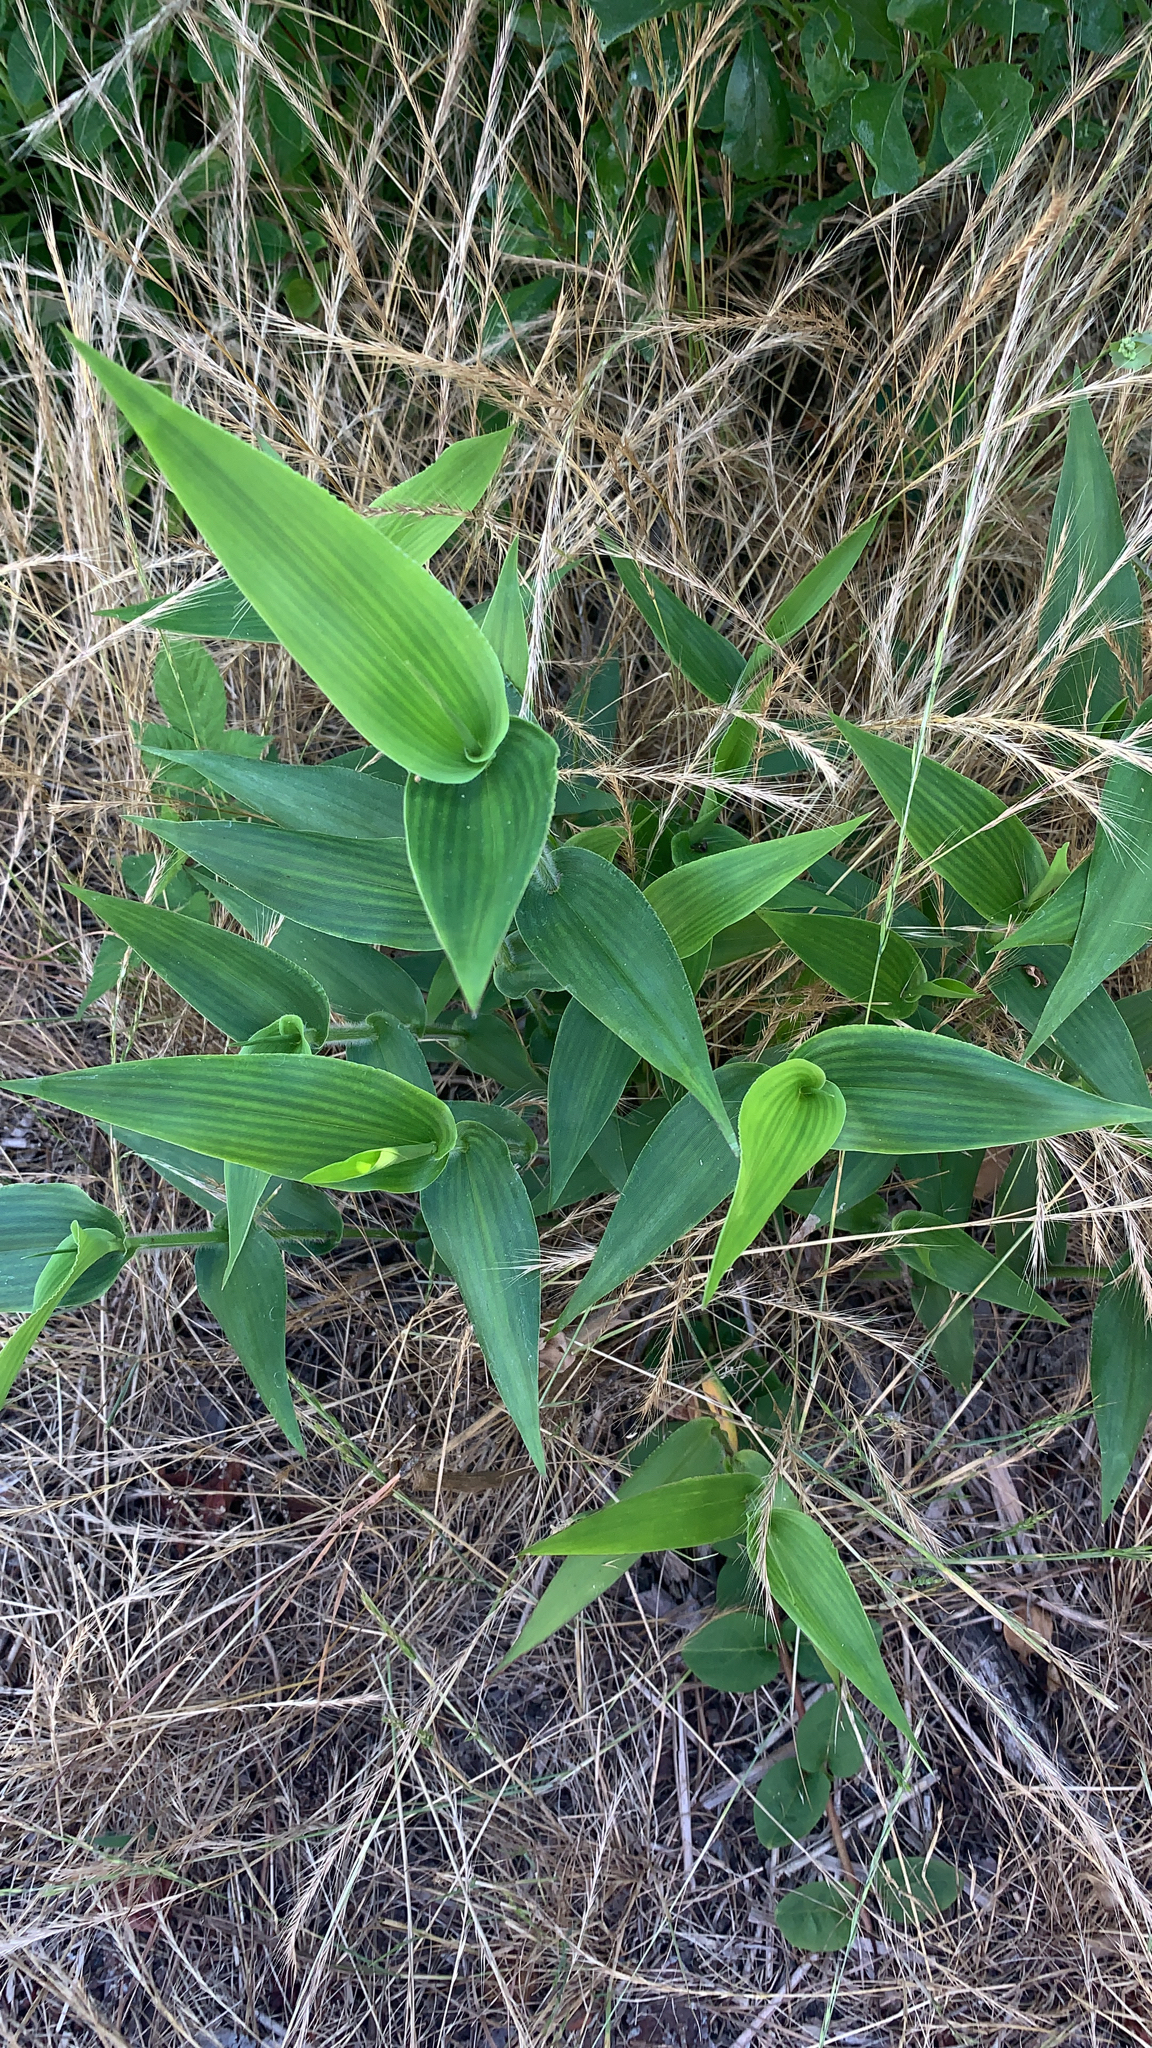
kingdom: Plantae
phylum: Tracheophyta
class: Liliopsida
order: Poales
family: Poaceae
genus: Dichanthelium
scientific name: Dichanthelium clandestinum
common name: Deer-tongue grass
